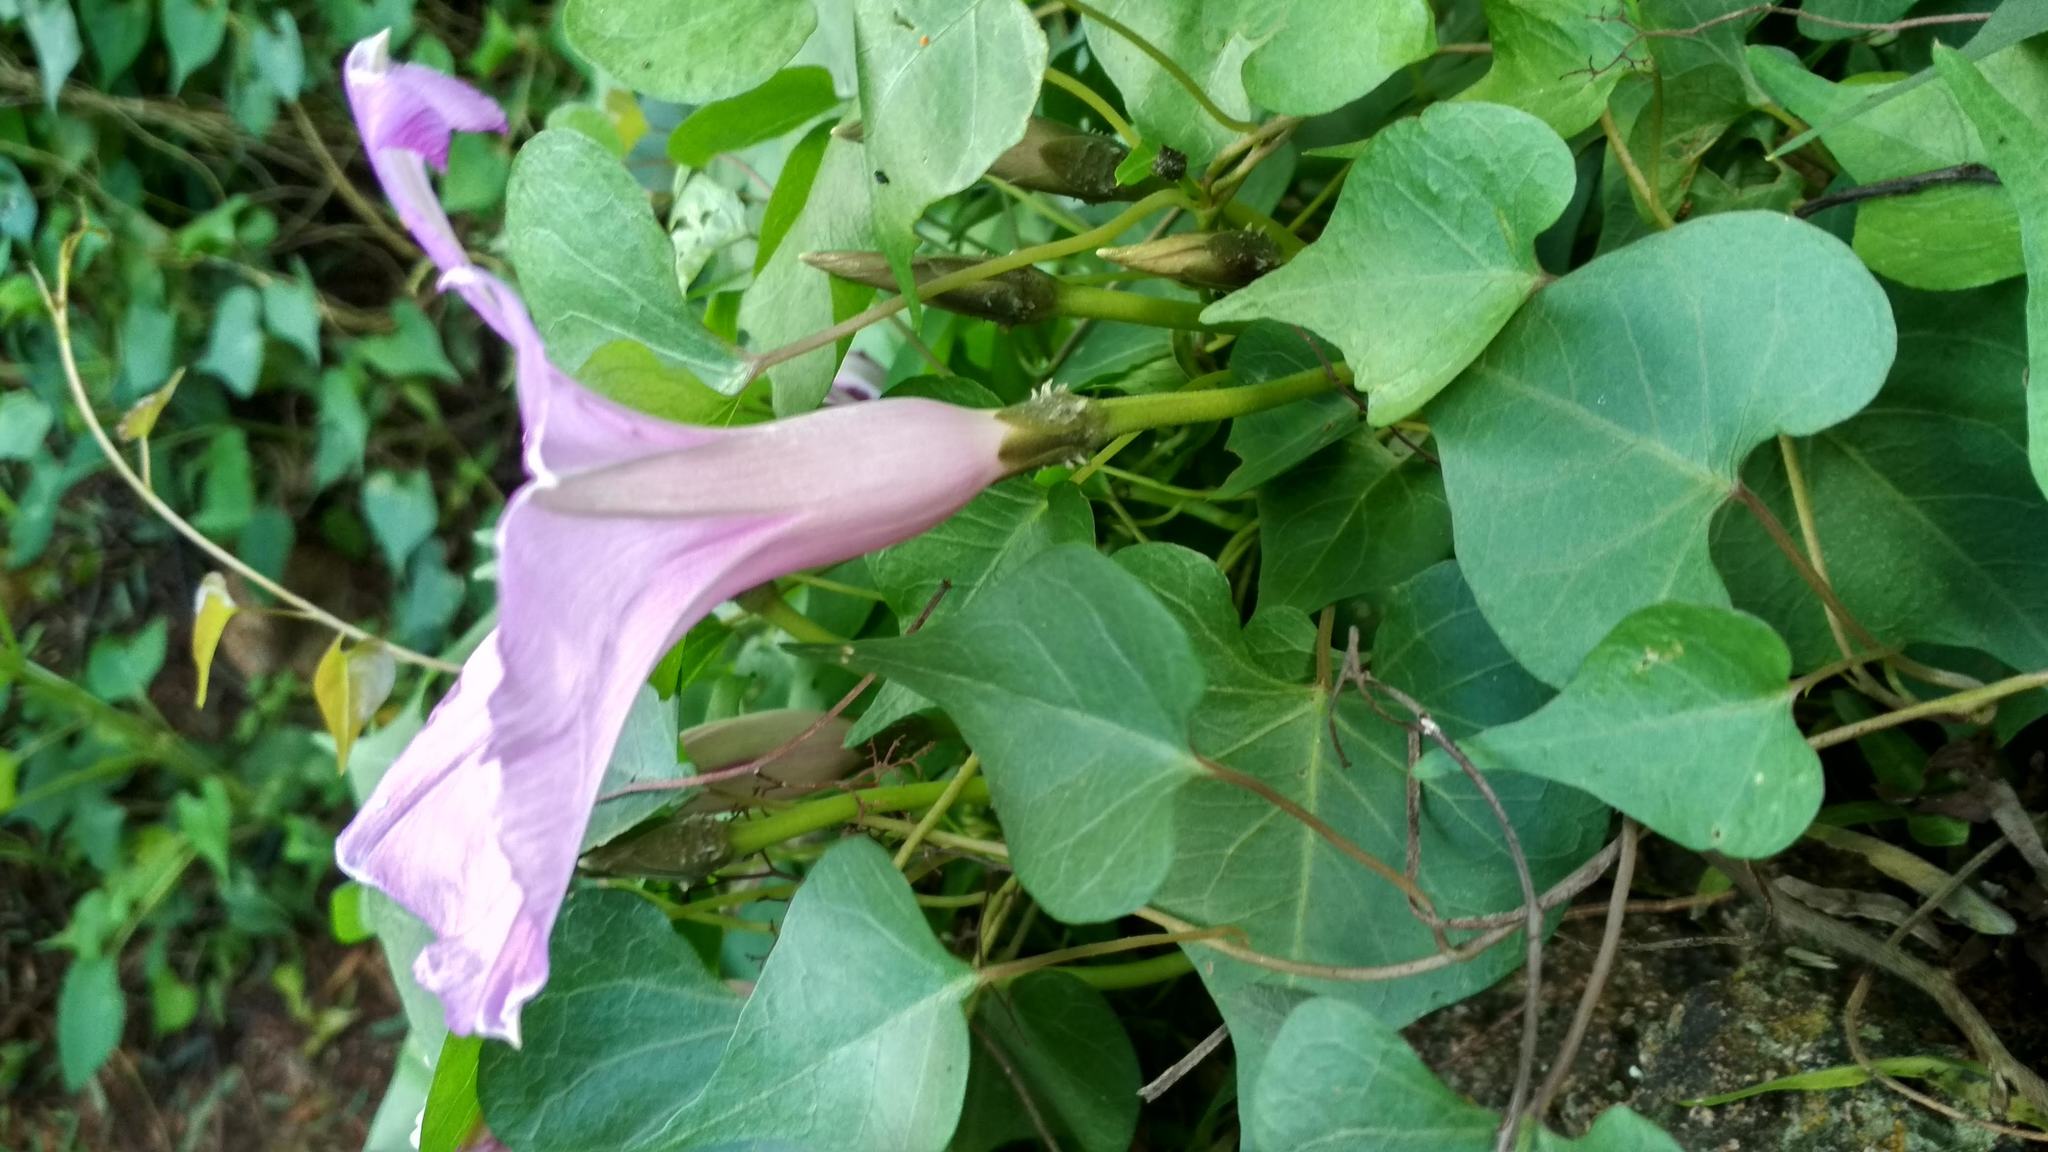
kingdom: Plantae
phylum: Tracheophyta
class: Magnoliopsida
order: Solanales
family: Convolvulaceae
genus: Ipomoea
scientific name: Ipomoea lozanii
